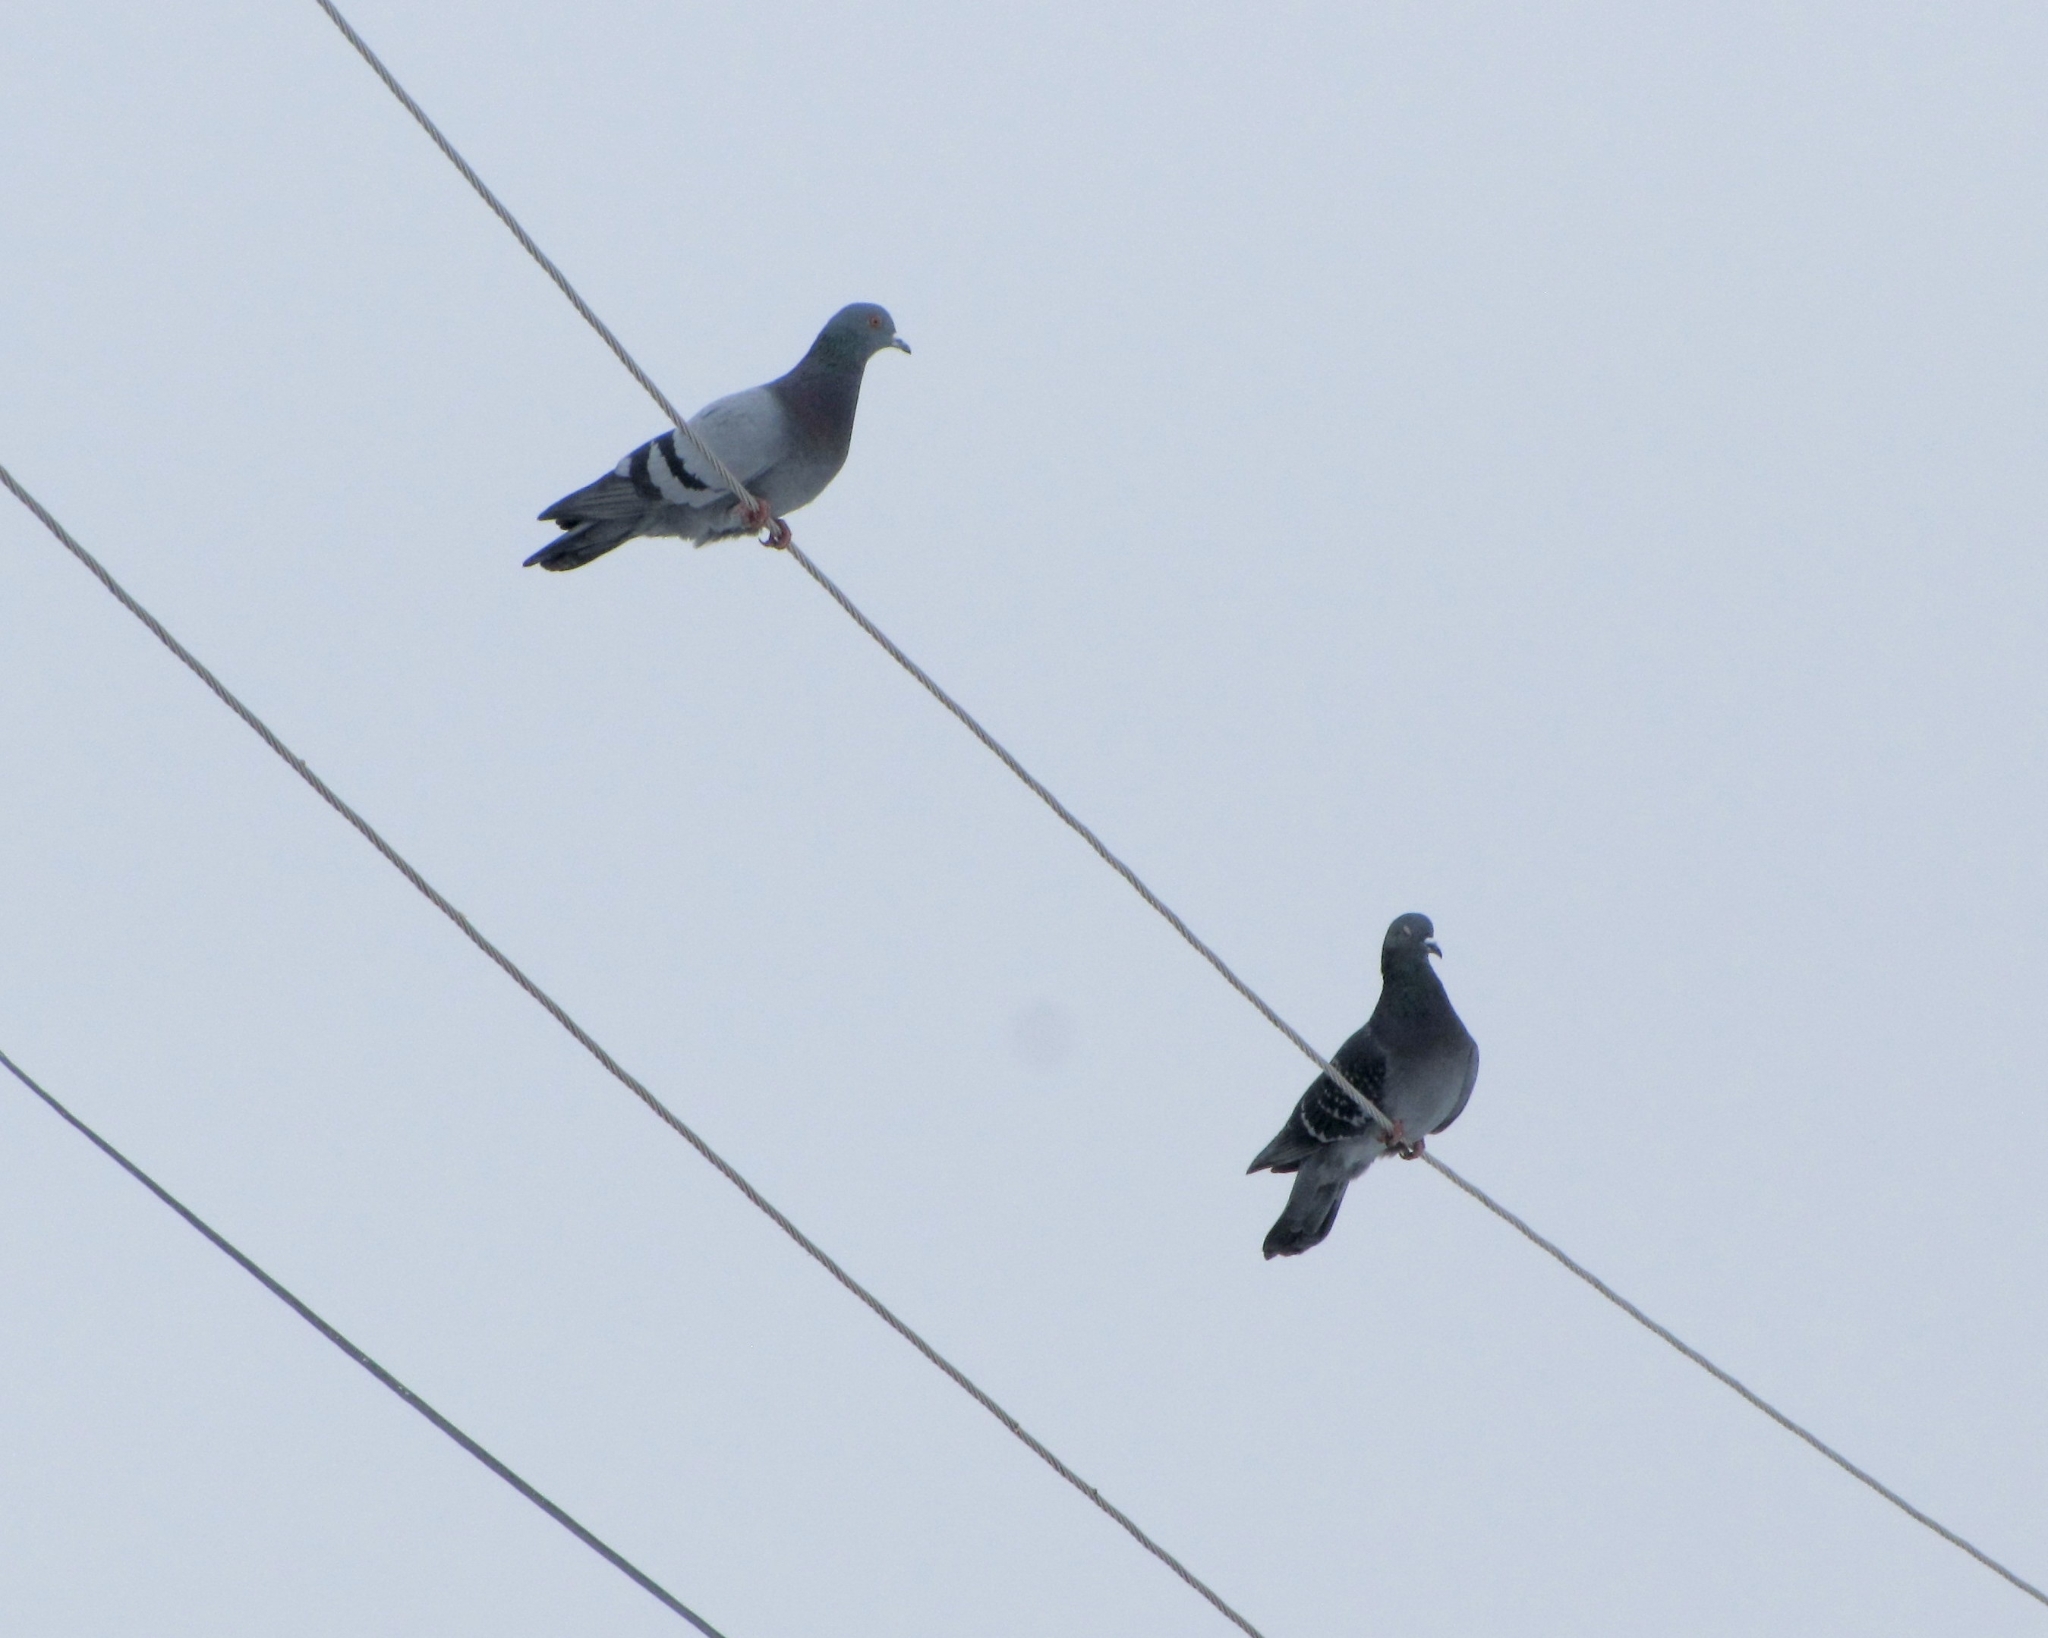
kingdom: Animalia
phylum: Chordata
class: Aves
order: Columbiformes
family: Columbidae
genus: Columba
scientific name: Columba livia
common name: Rock pigeon
